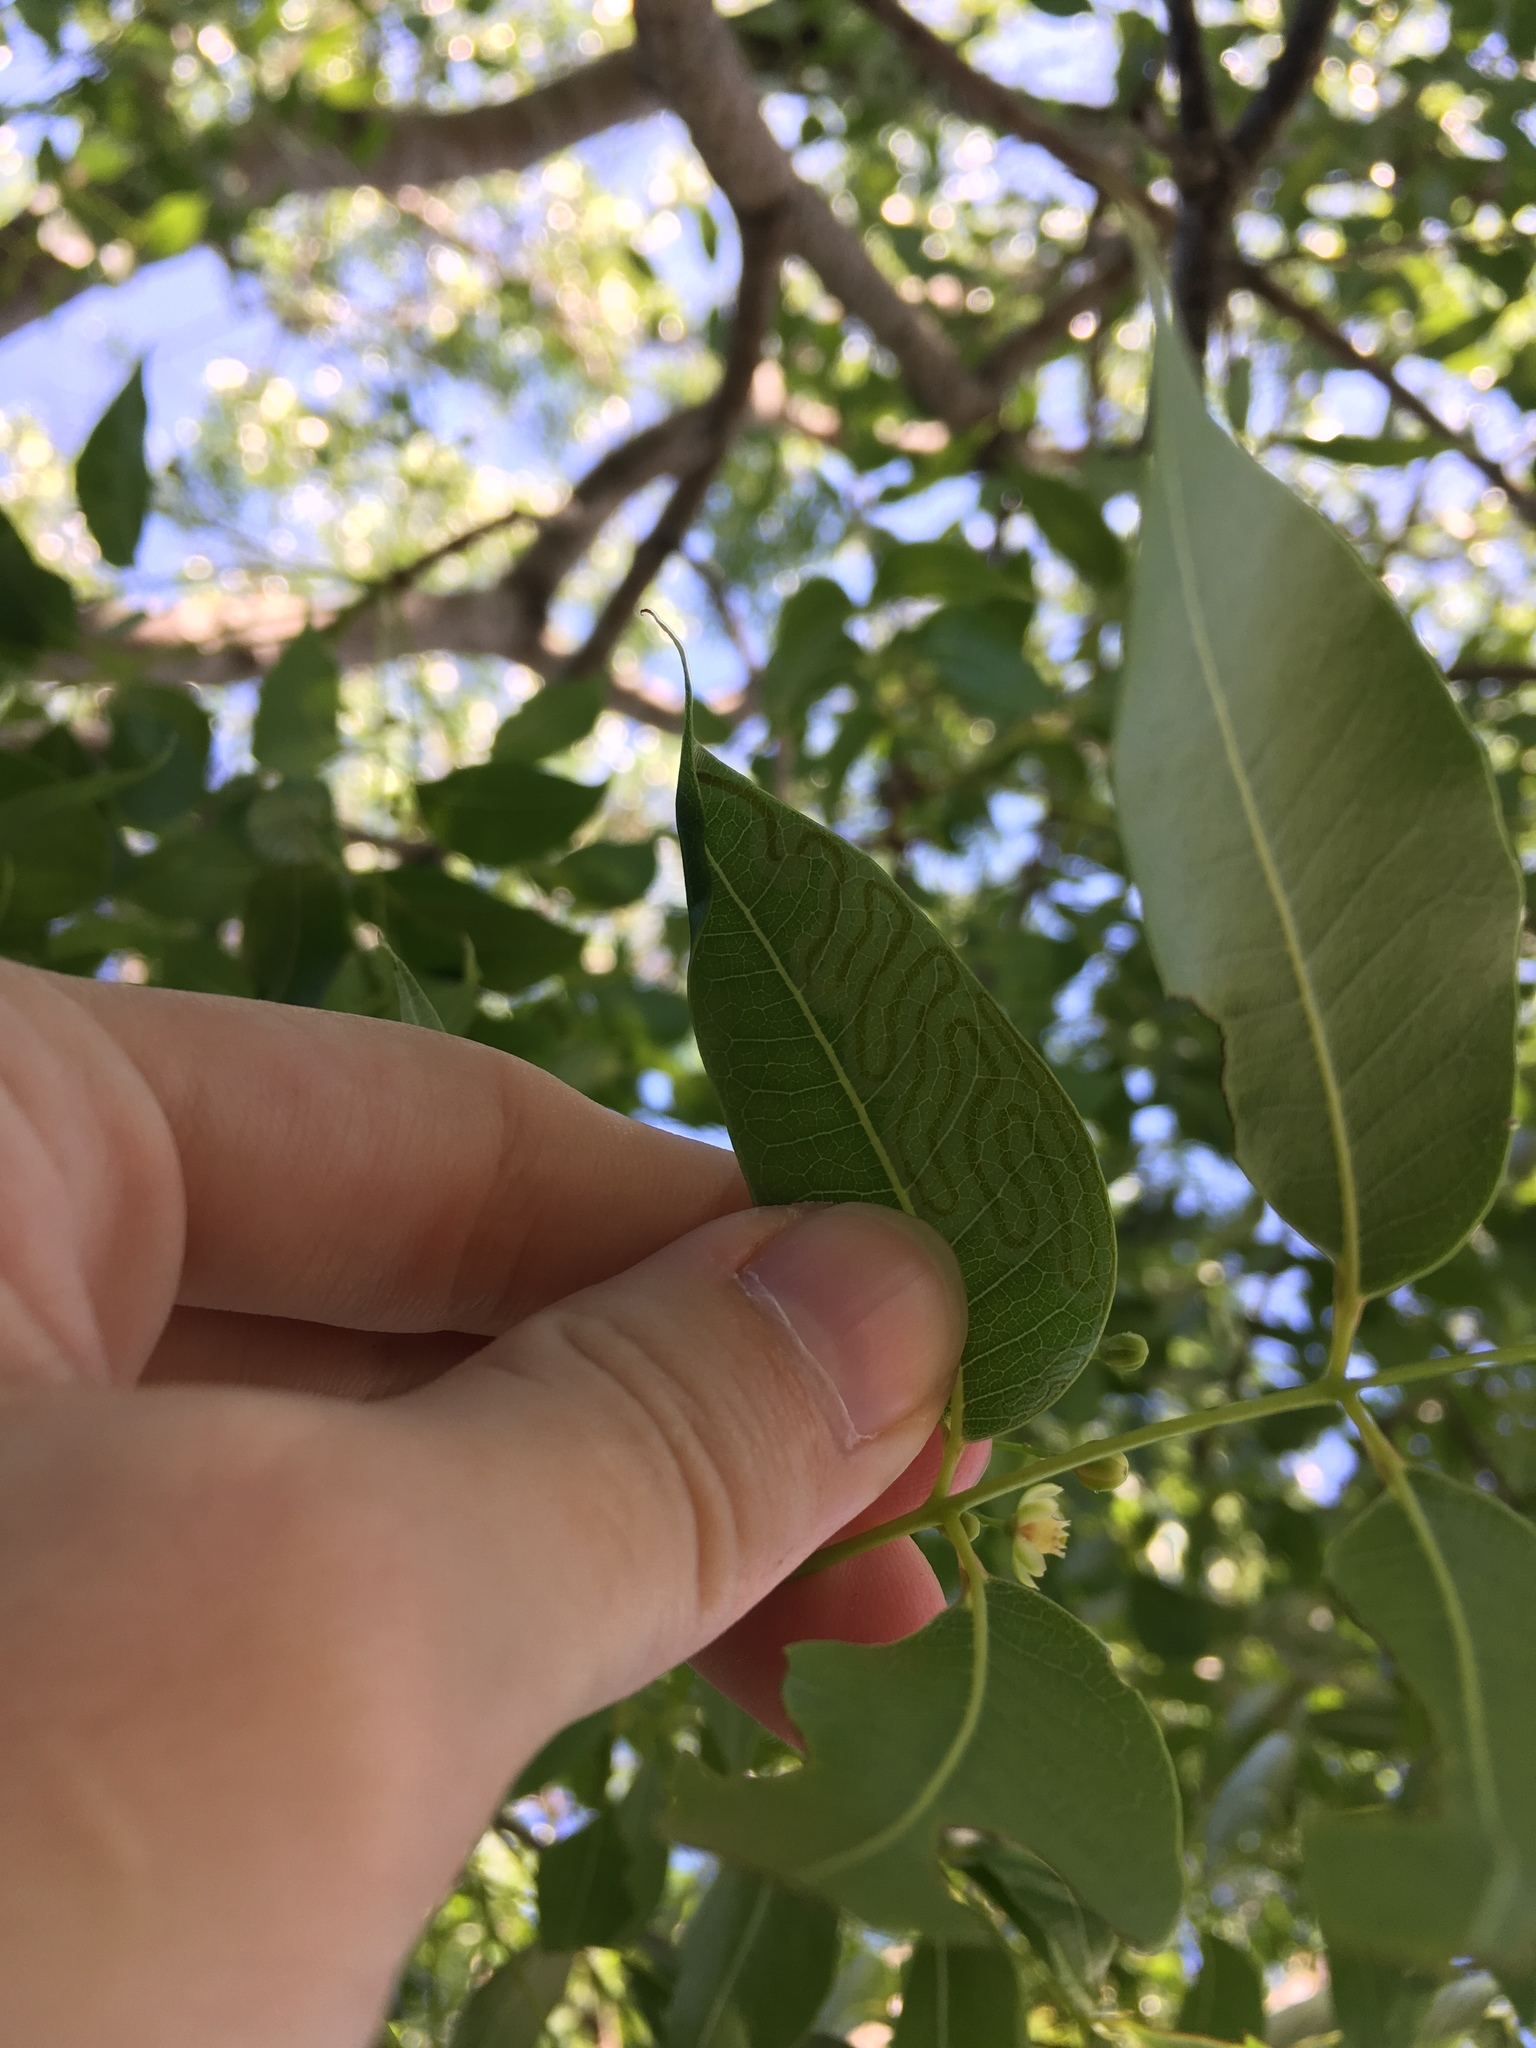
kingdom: Animalia
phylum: Arthropoda
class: Insecta
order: Lepidoptera
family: Gracillariidae
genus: Phyllocnistis
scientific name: Phyllocnistis meliacella
